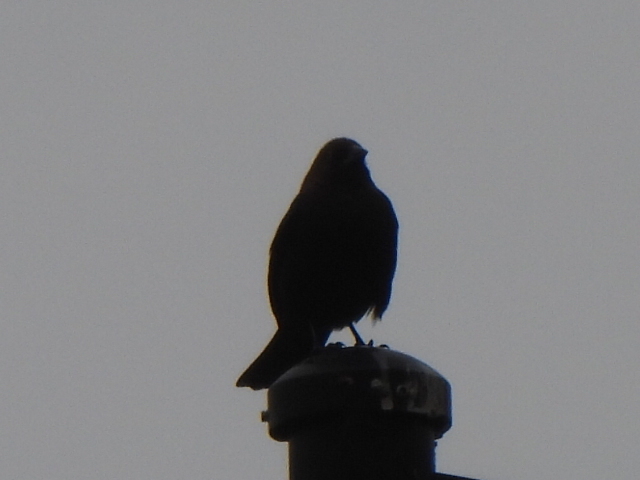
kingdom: Animalia
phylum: Chordata
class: Aves
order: Passeriformes
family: Icteridae
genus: Molothrus
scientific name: Molothrus ater
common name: Brown-headed cowbird
